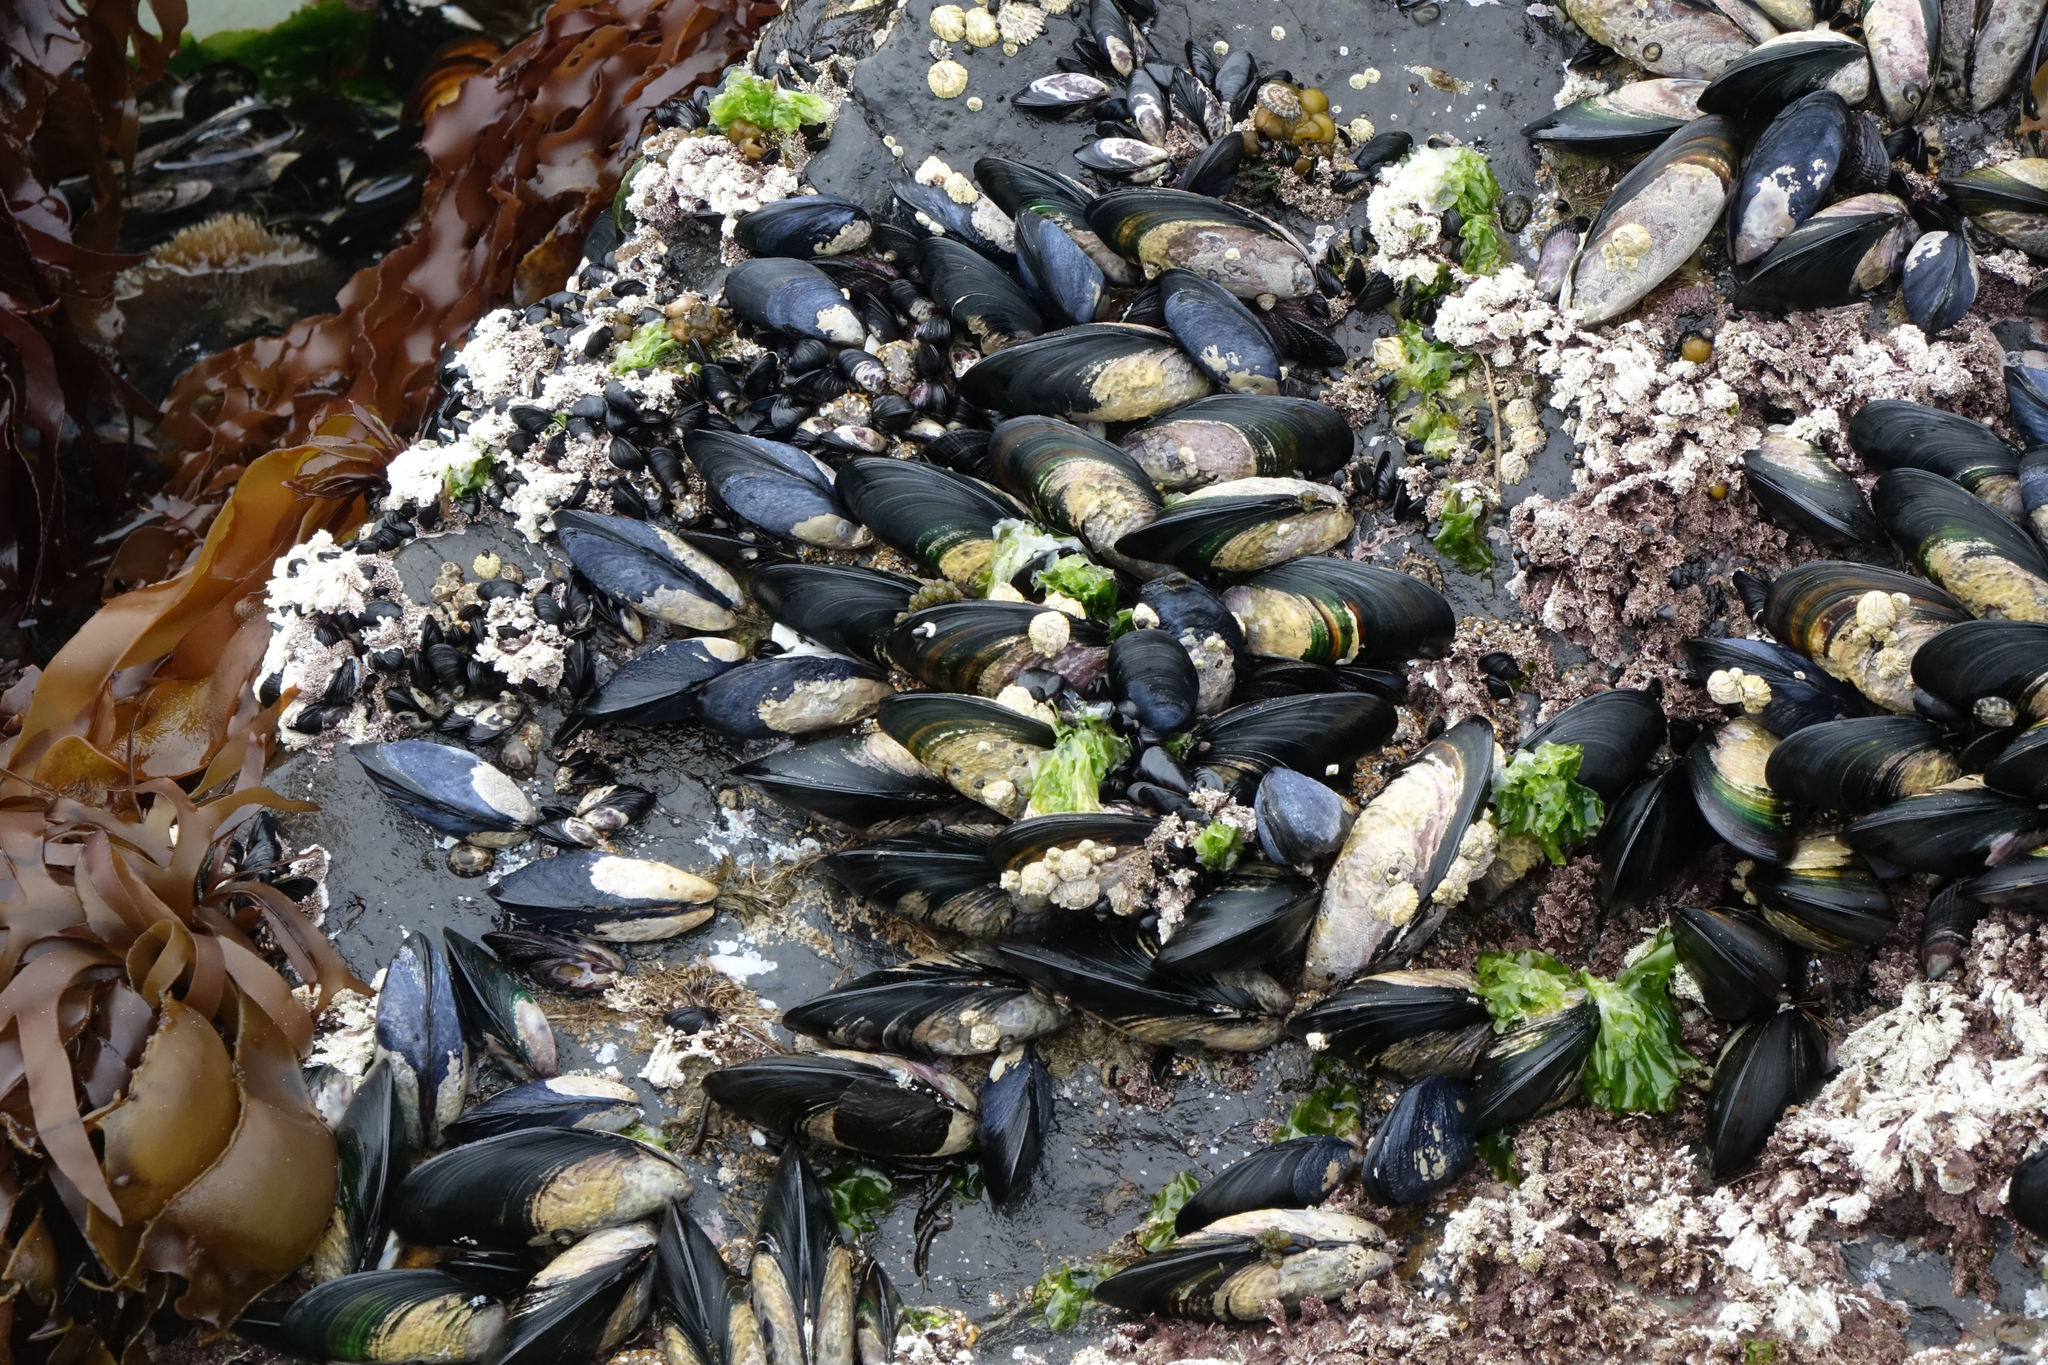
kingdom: Animalia
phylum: Mollusca
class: Bivalvia
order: Mytilida
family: Mytilidae
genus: Perna
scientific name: Perna canaliculus
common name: New zealand greenshelltm
